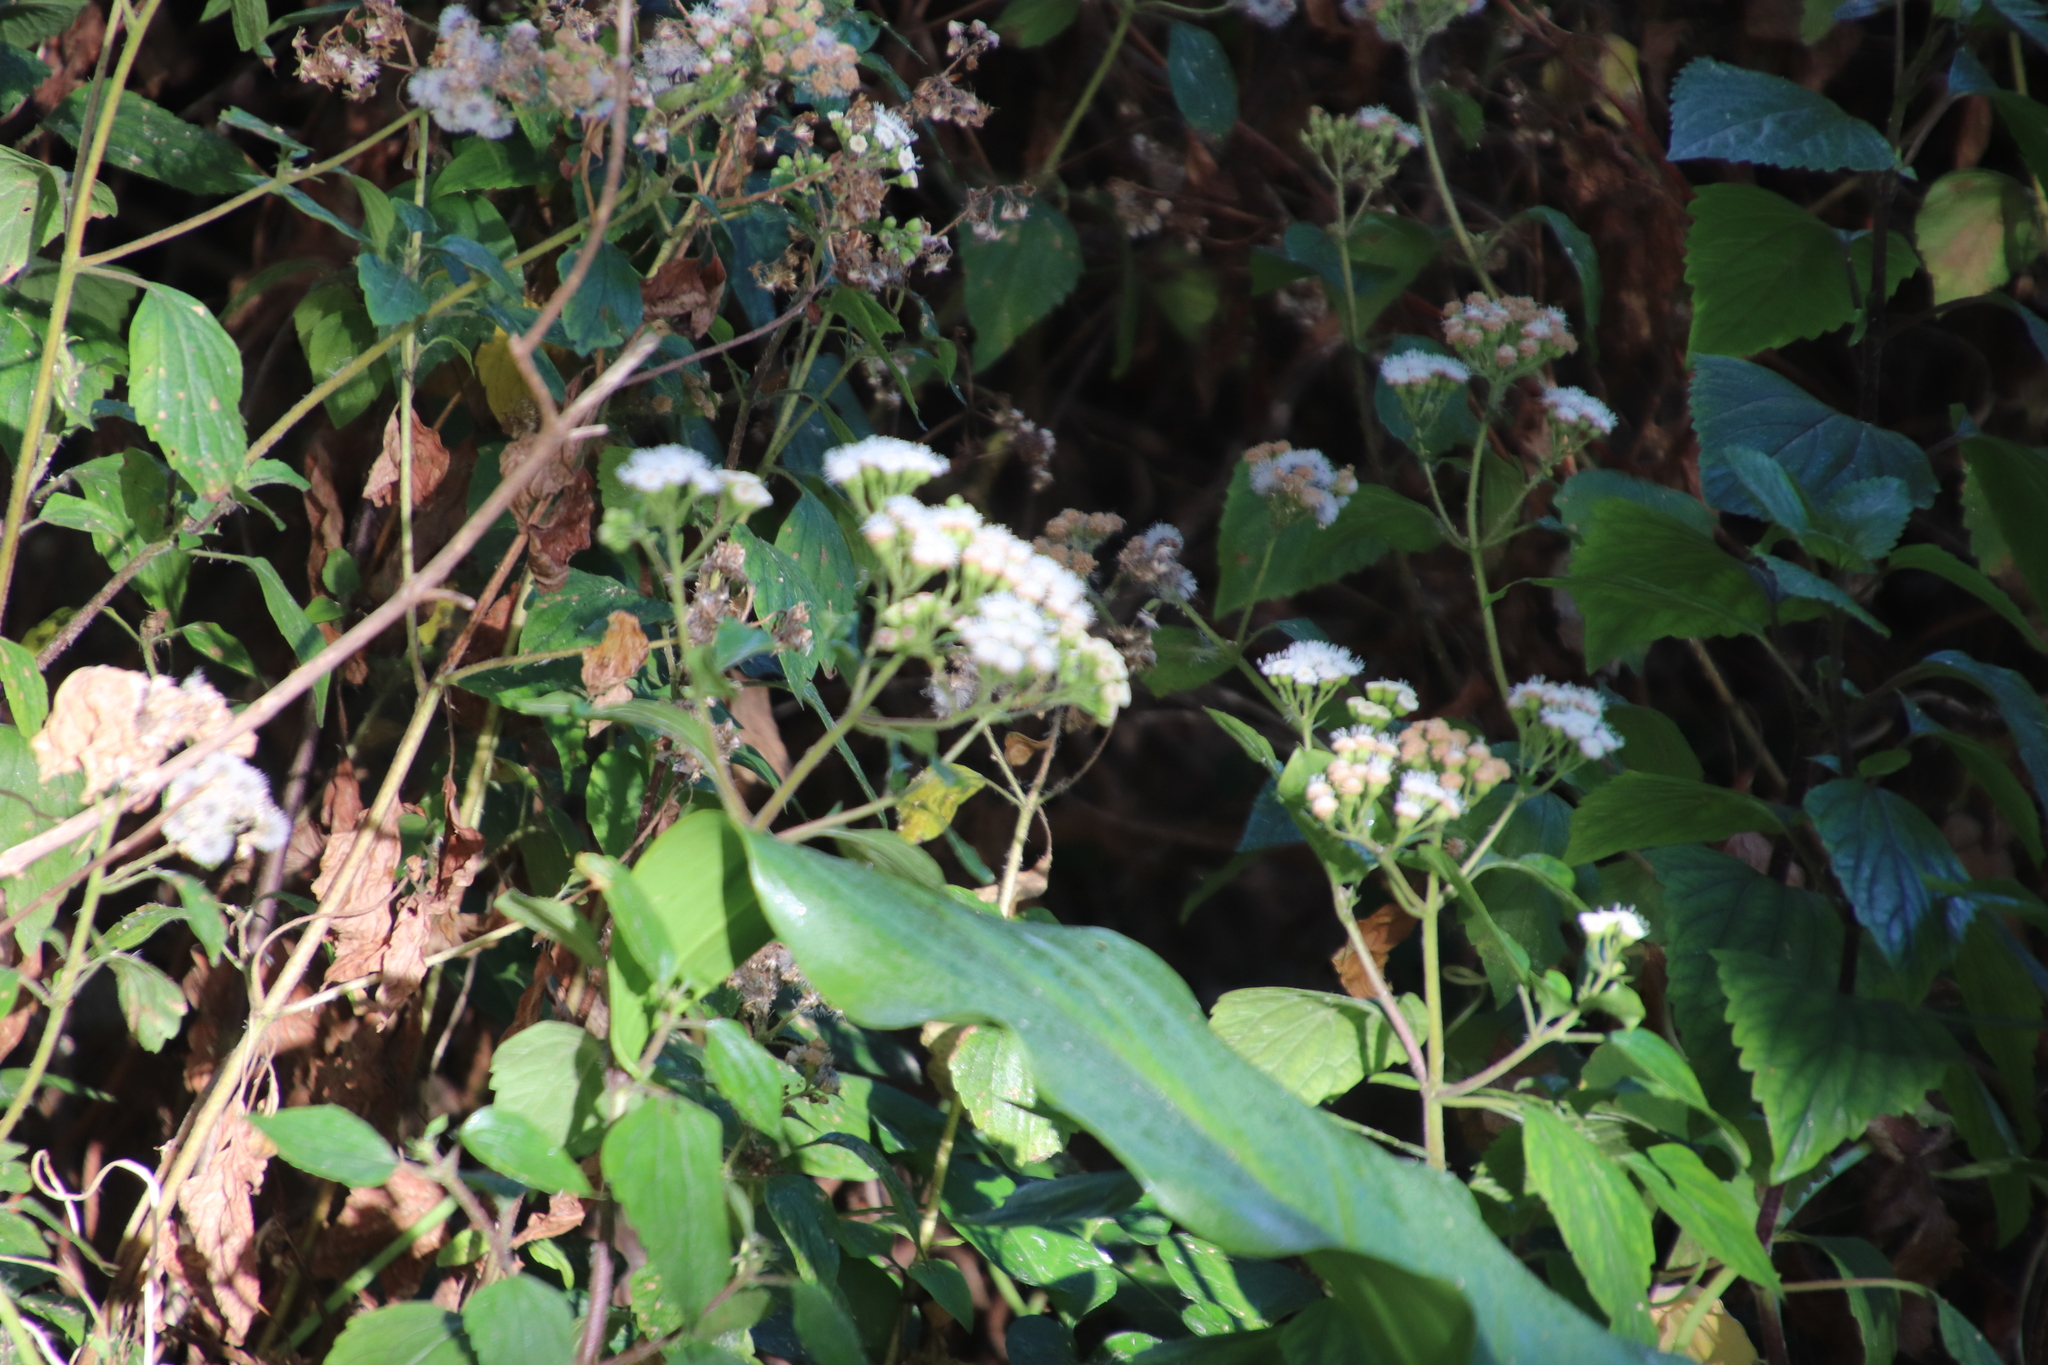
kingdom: Plantae
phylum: Tracheophyta
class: Magnoliopsida
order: Asterales
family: Asteraceae
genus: Ageratina
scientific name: Ageratina adenophora
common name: Sticky snakeroot
